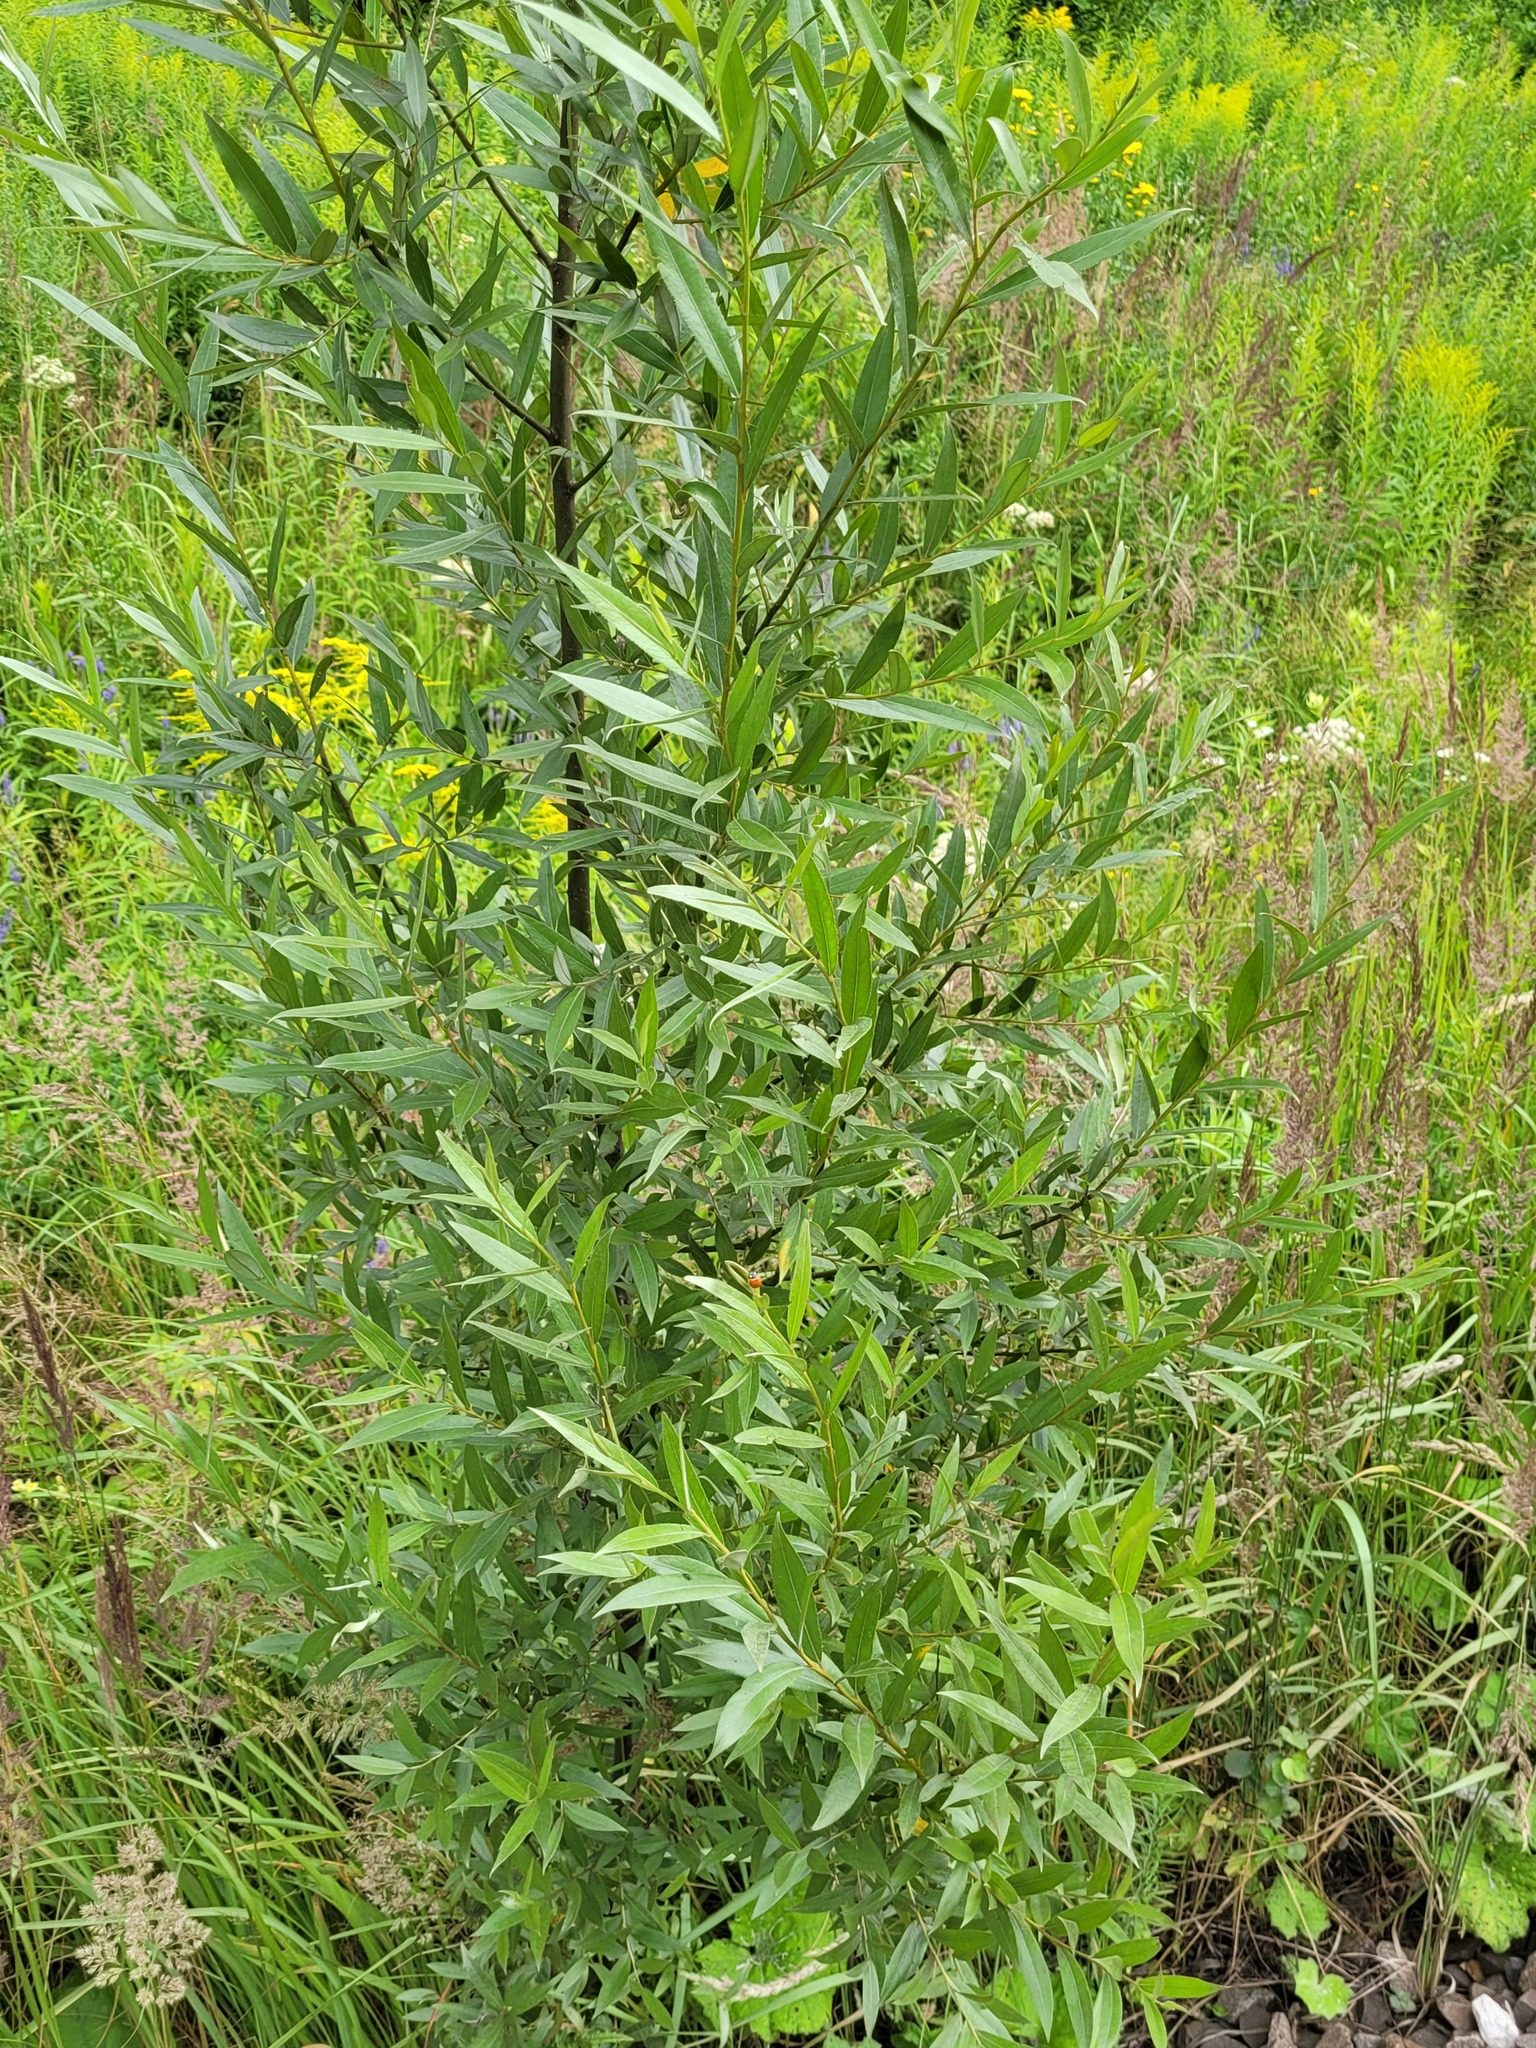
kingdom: Plantae
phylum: Tracheophyta
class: Magnoliopsida
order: Malpighiales
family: Salicaceae
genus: Salix
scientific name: Salix alba
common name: White willow
